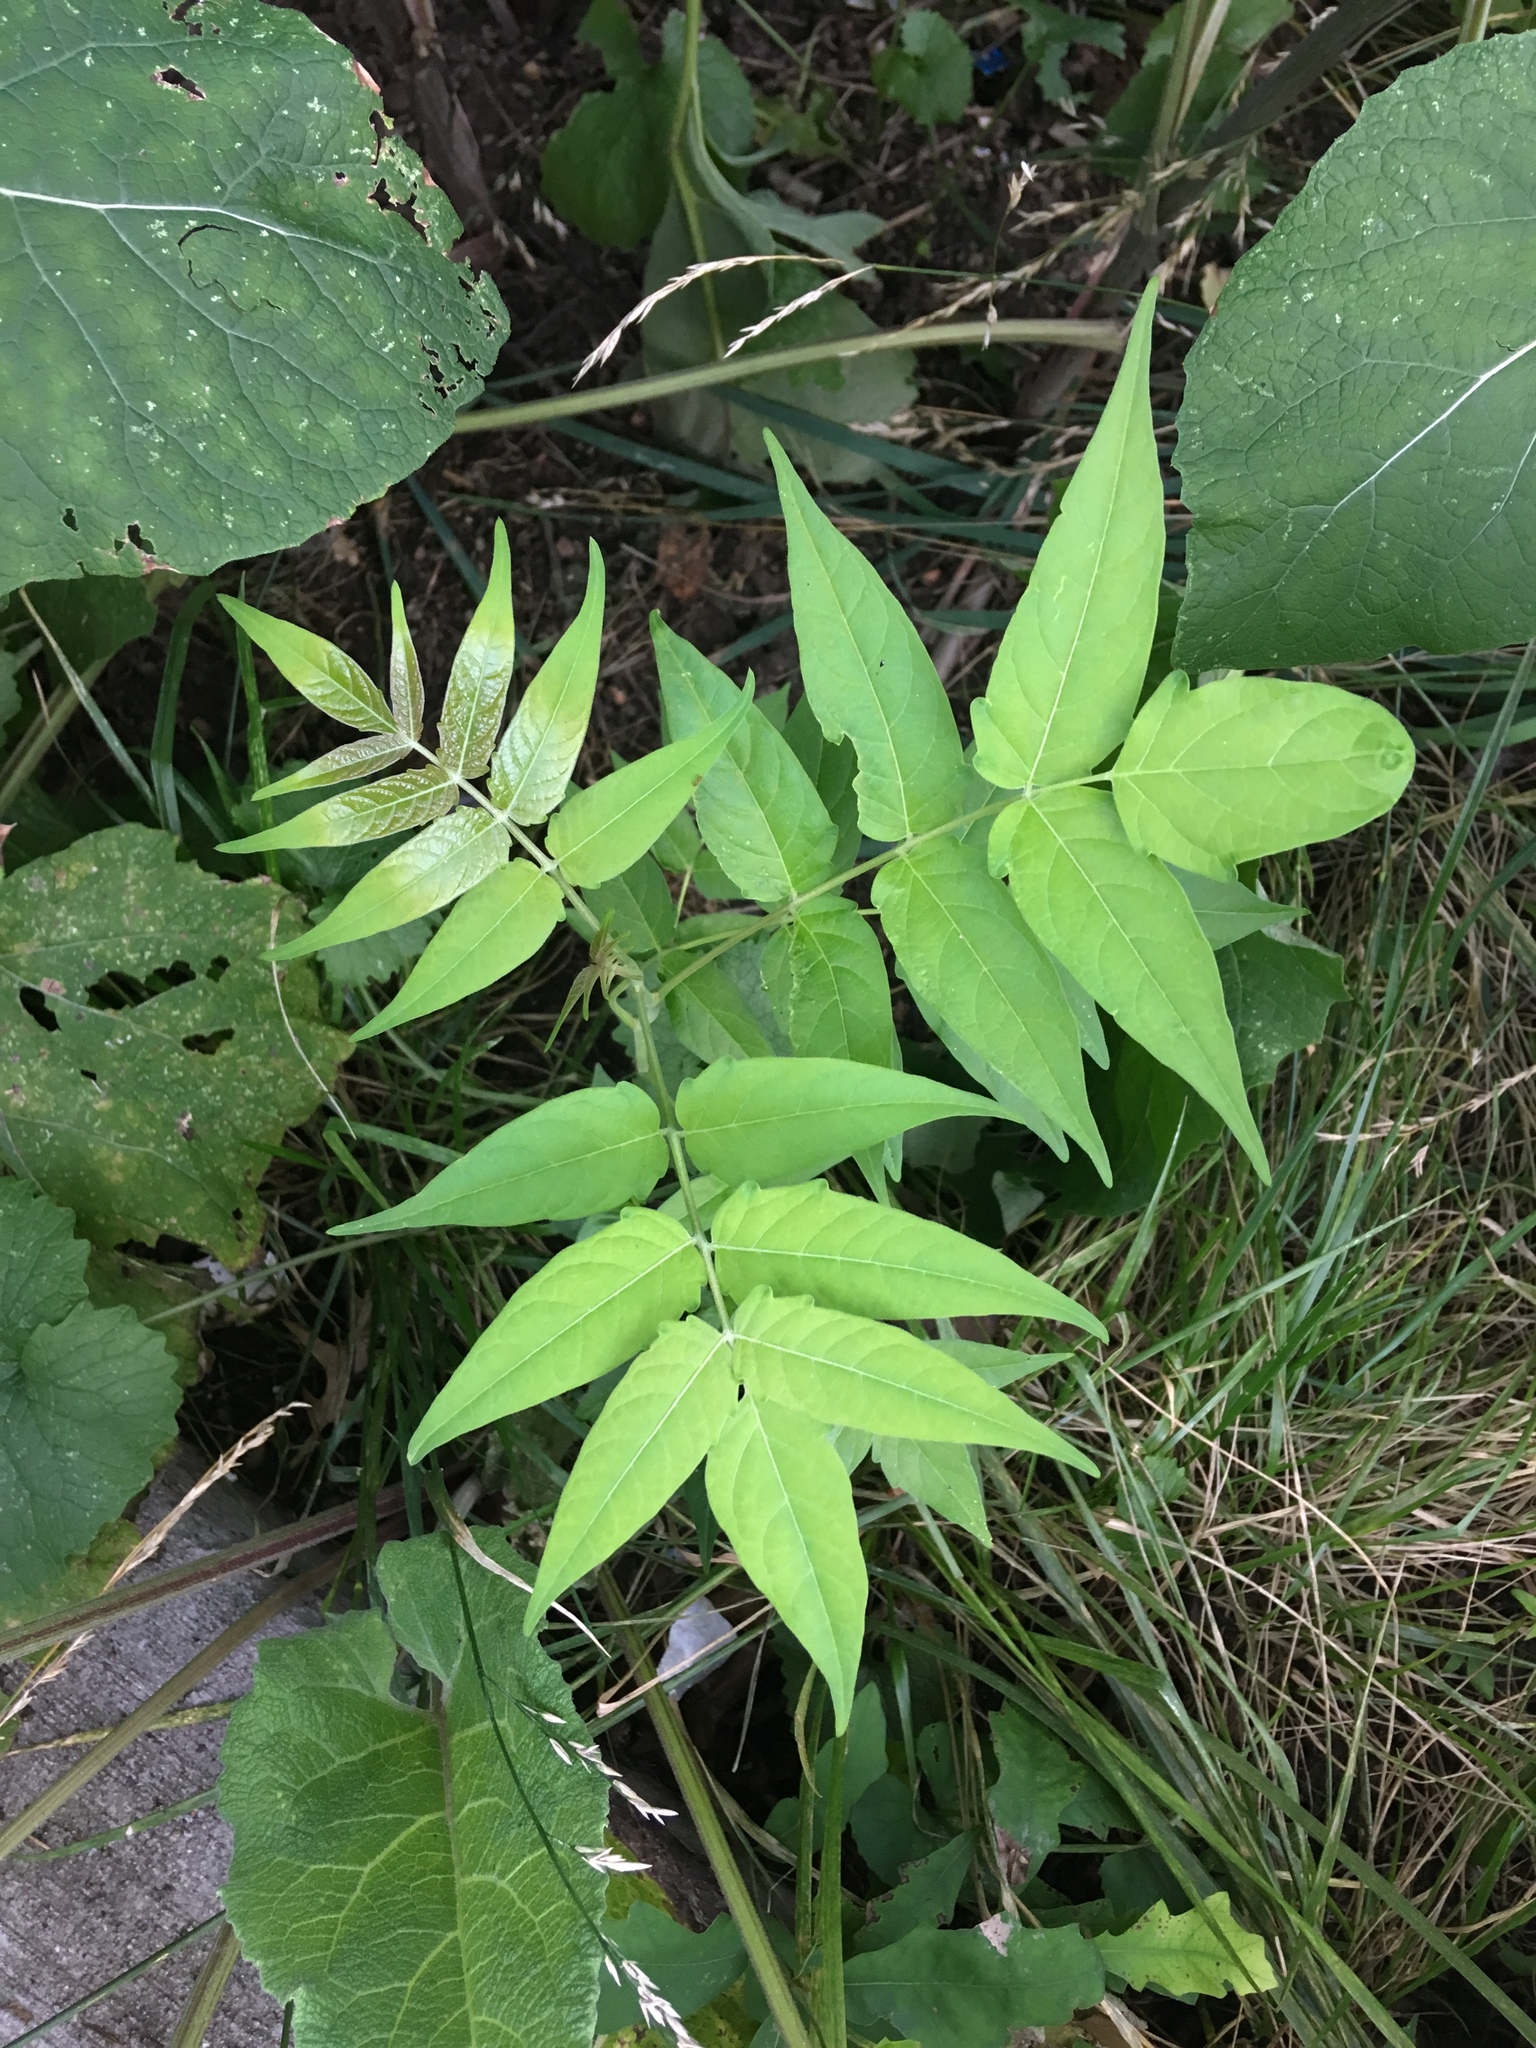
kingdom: Plantae
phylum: Tracheophyta
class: Magnoliopsida
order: Sapindales
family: Simaroubaceae
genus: Ailanthus
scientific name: Ailanthus altissima
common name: Tree-of-heaven
